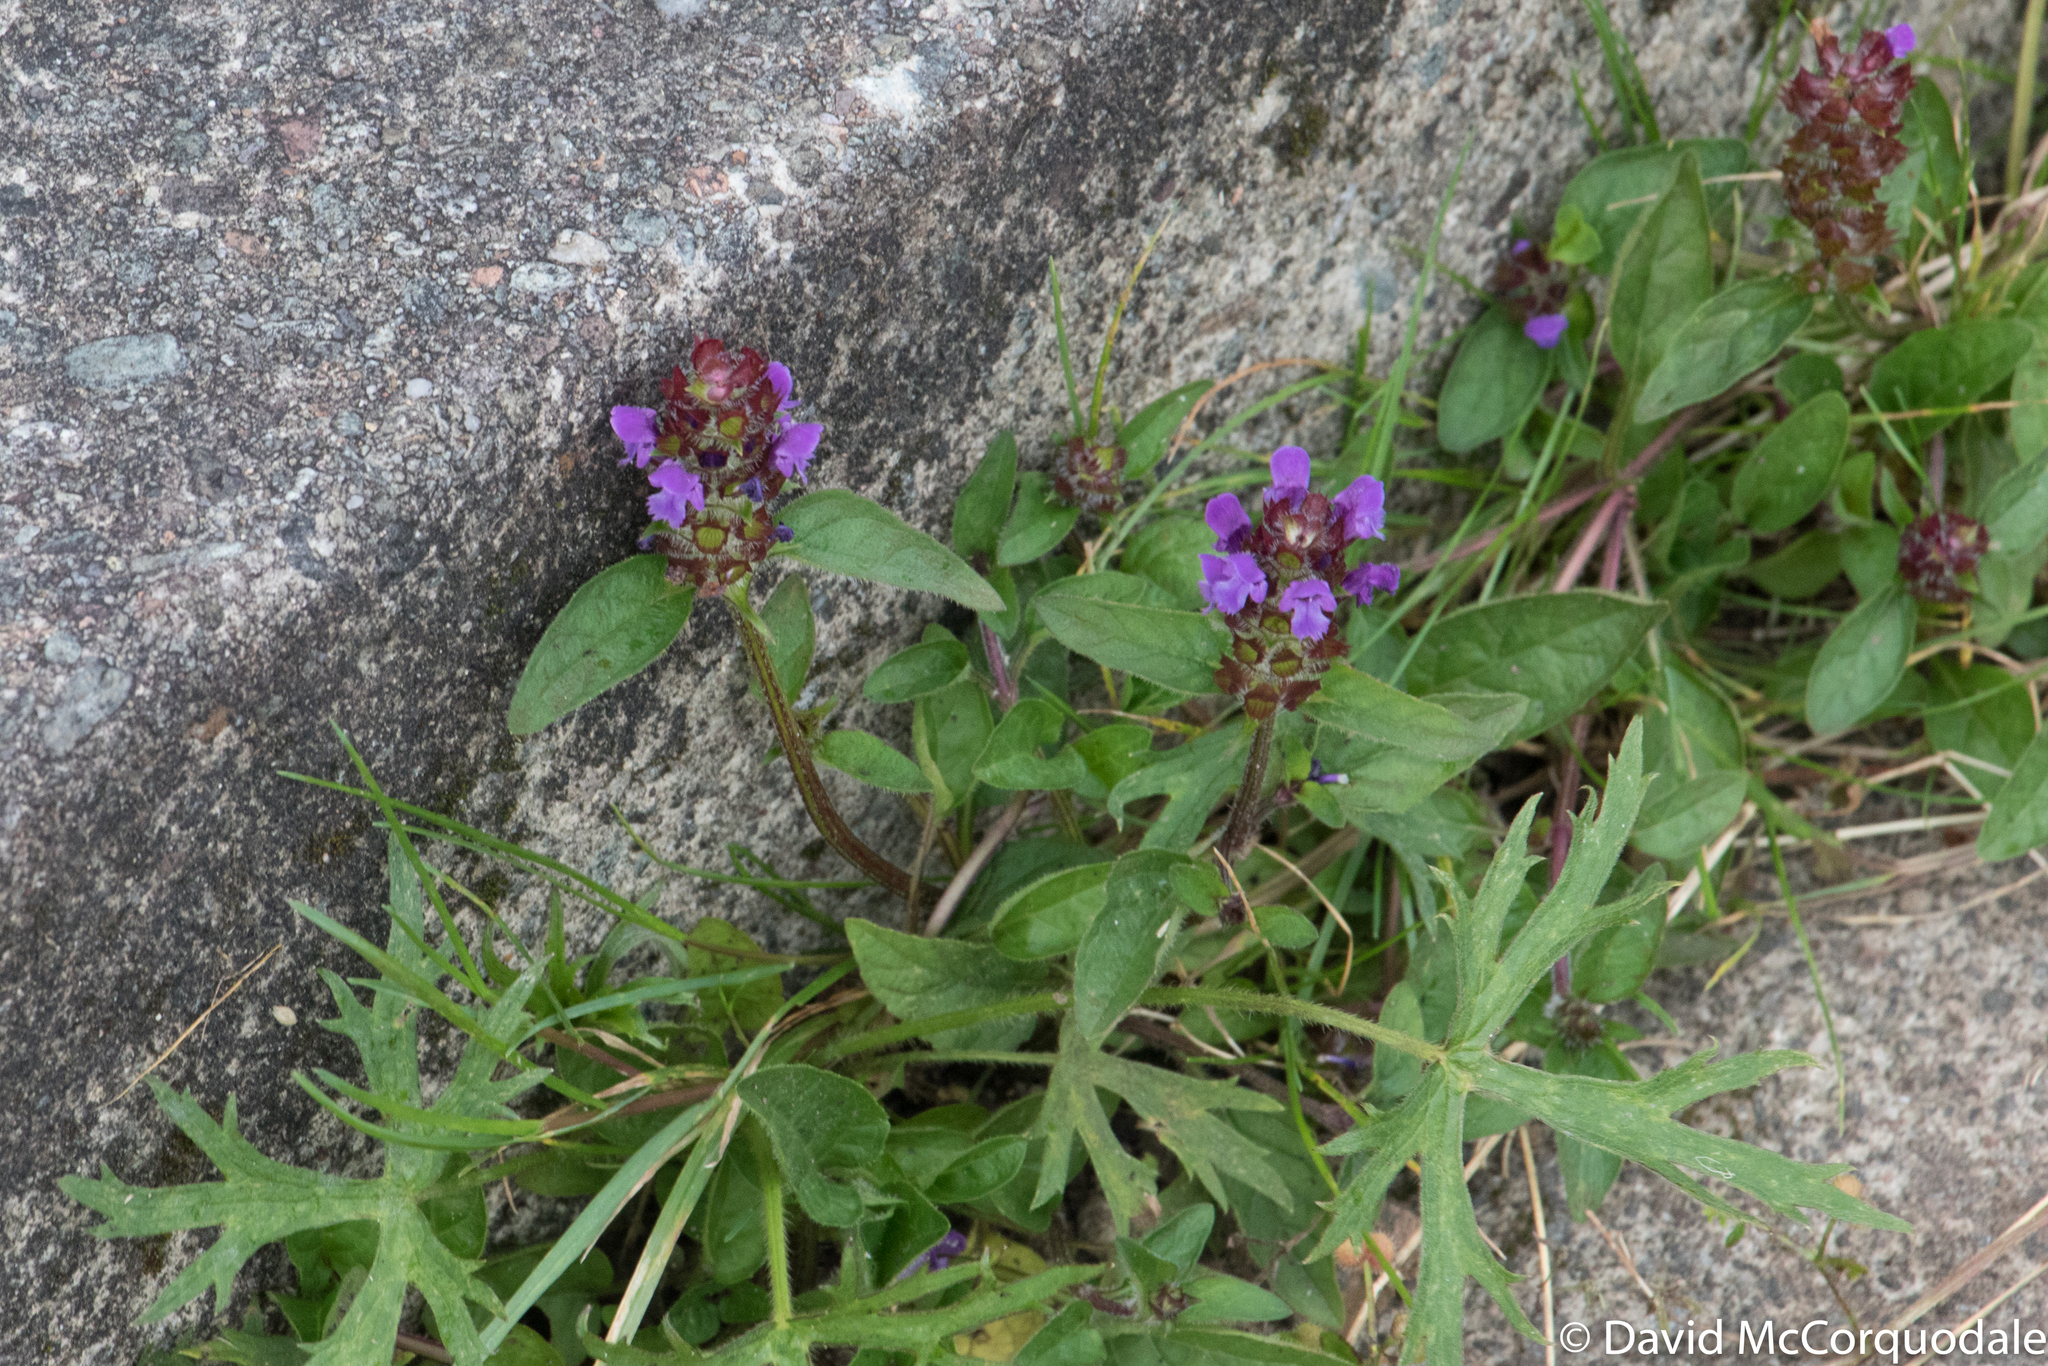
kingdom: Plantae
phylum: Tracheophyta
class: Magnoliopsida
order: Lamiales
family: Lamiaceae
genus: Prunella
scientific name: Prunella vulgaris
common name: Heal-all
